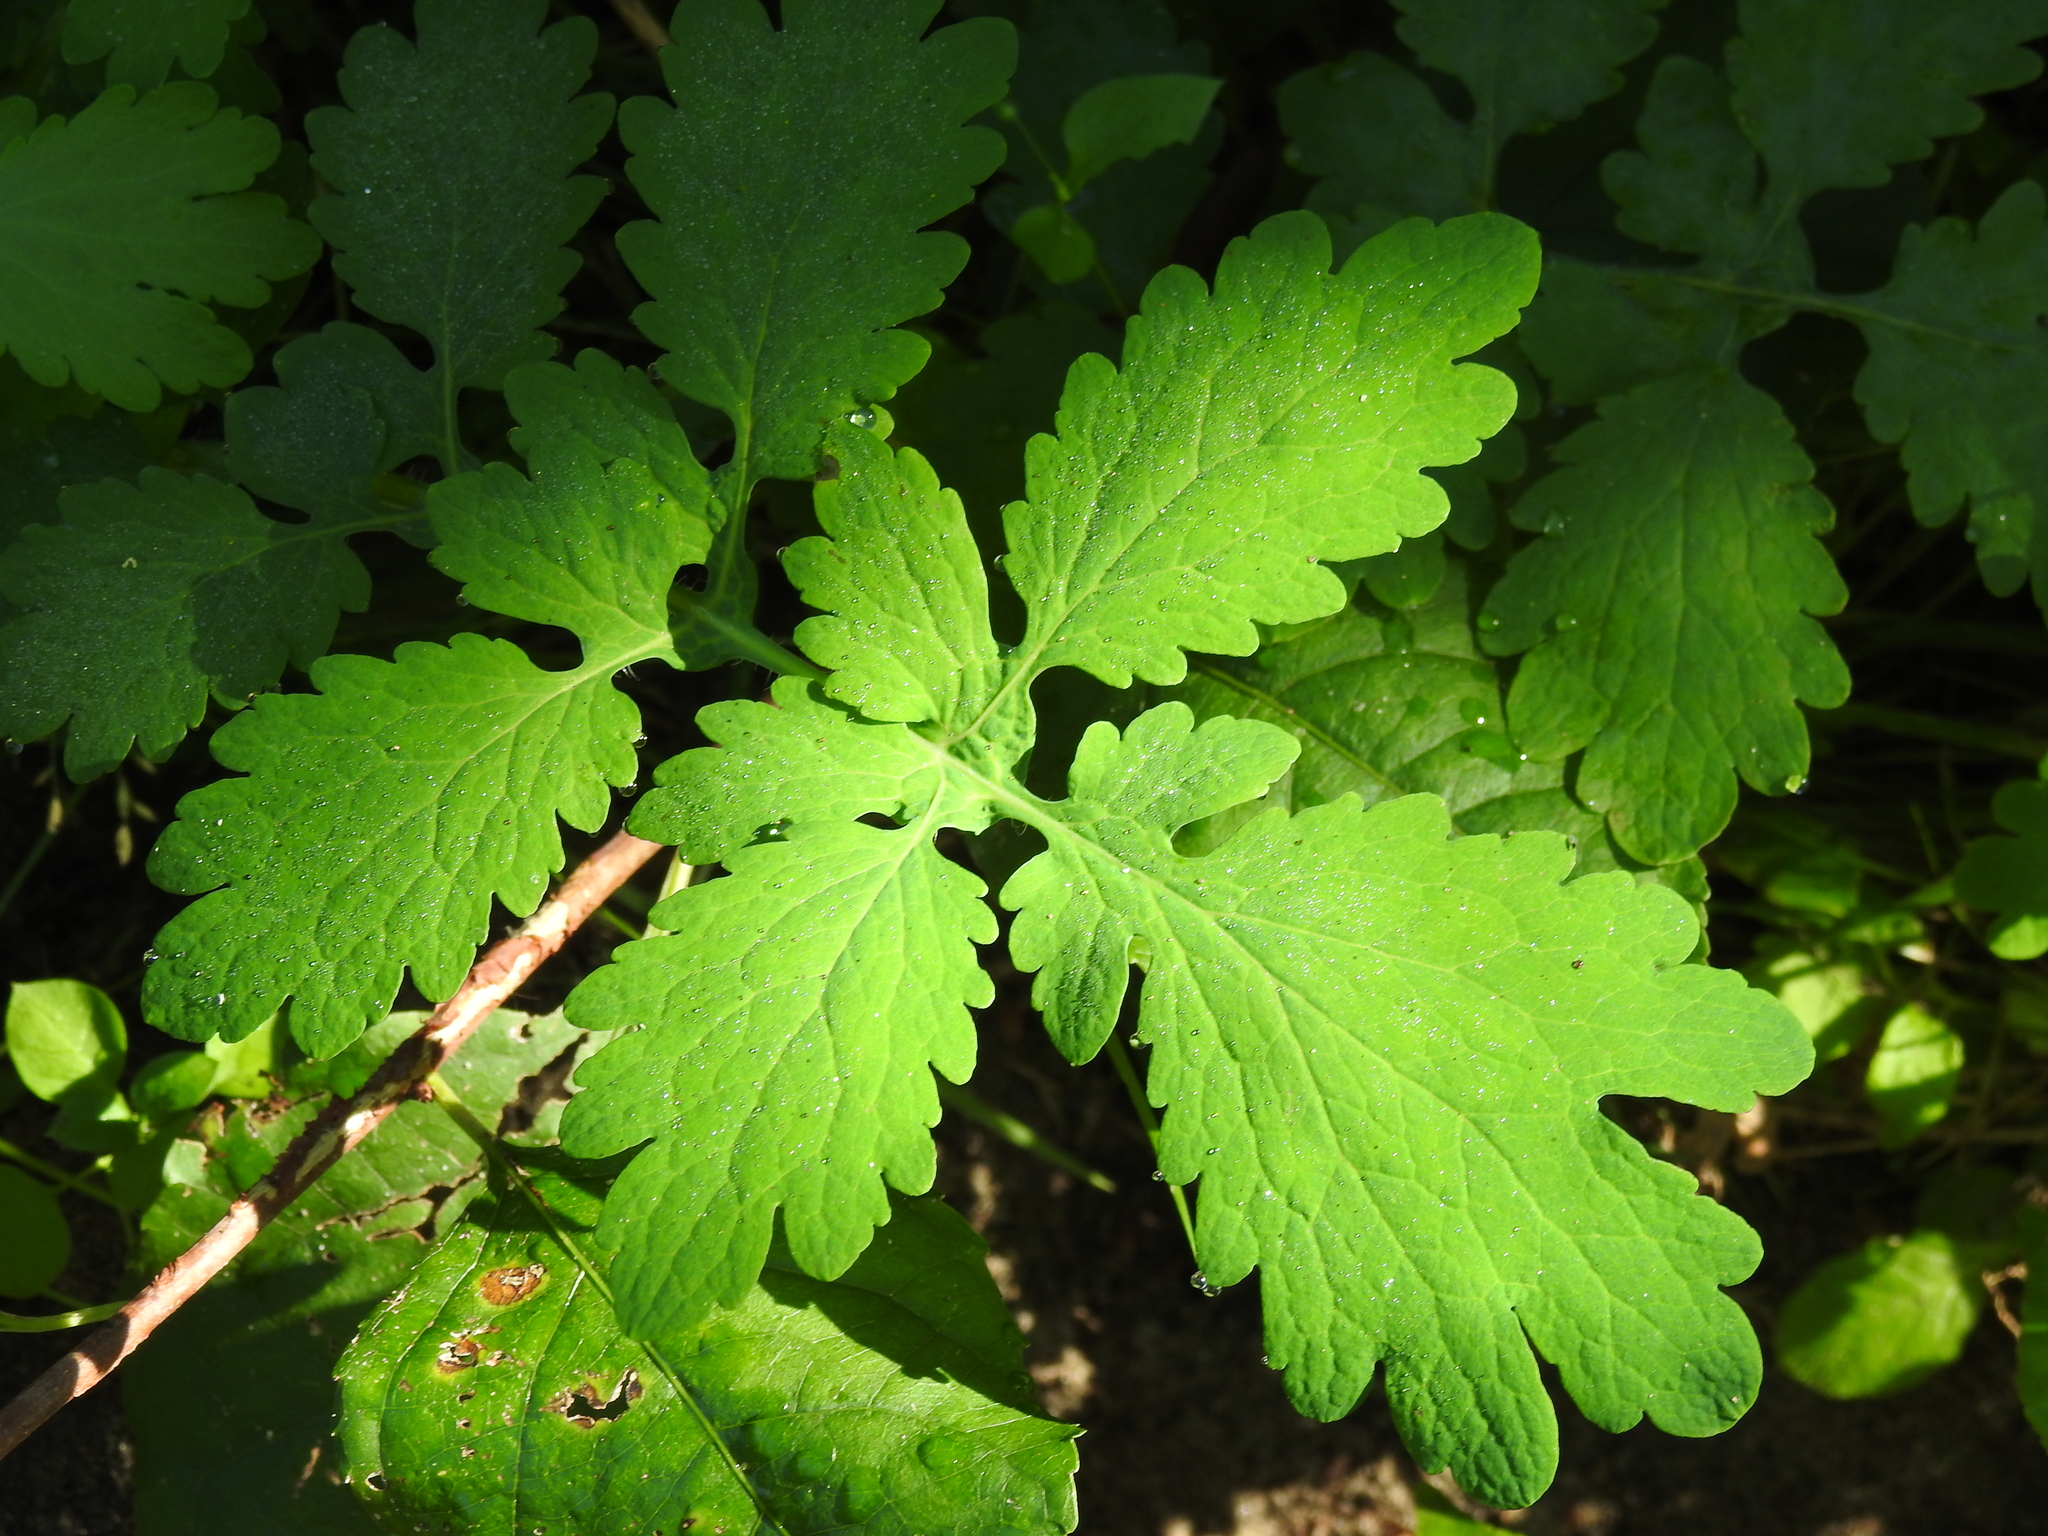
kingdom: Plantae
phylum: Tracheophyta
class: Magnoliopsida
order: Ranunculales
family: Papaveraceae
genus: Chelidonium
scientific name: Chelidonium majus
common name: Greater celandine
